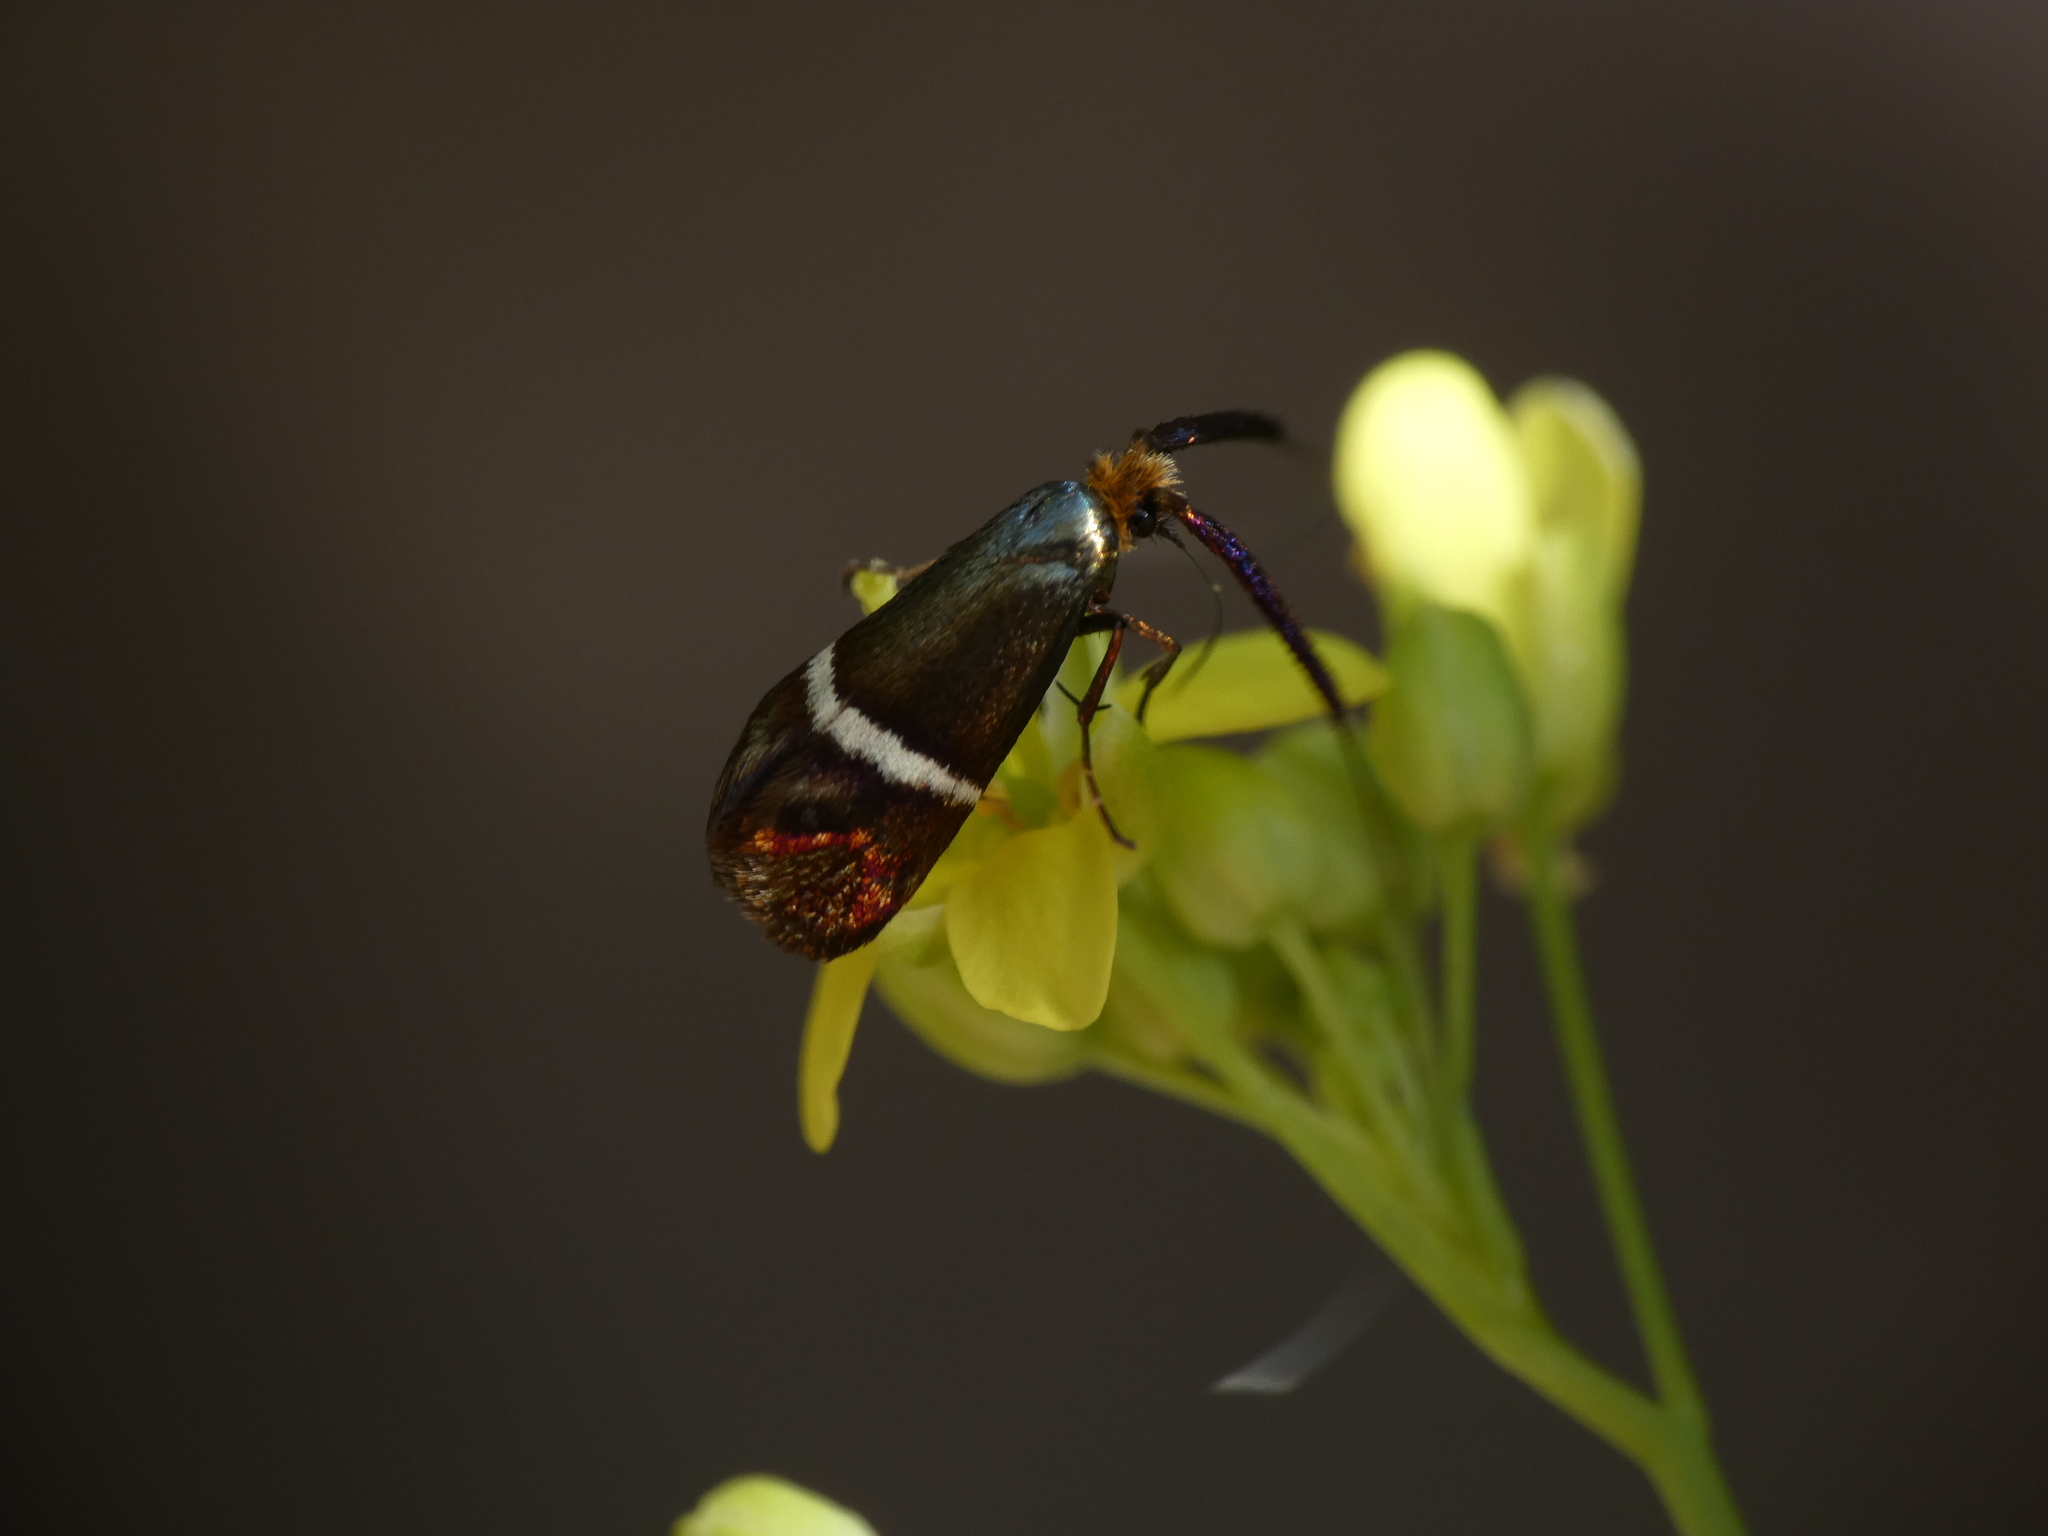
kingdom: Animalia
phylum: Arthropoda
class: Insecta
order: Lepidoptera
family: Adelidae
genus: Adela
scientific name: Adela australis
